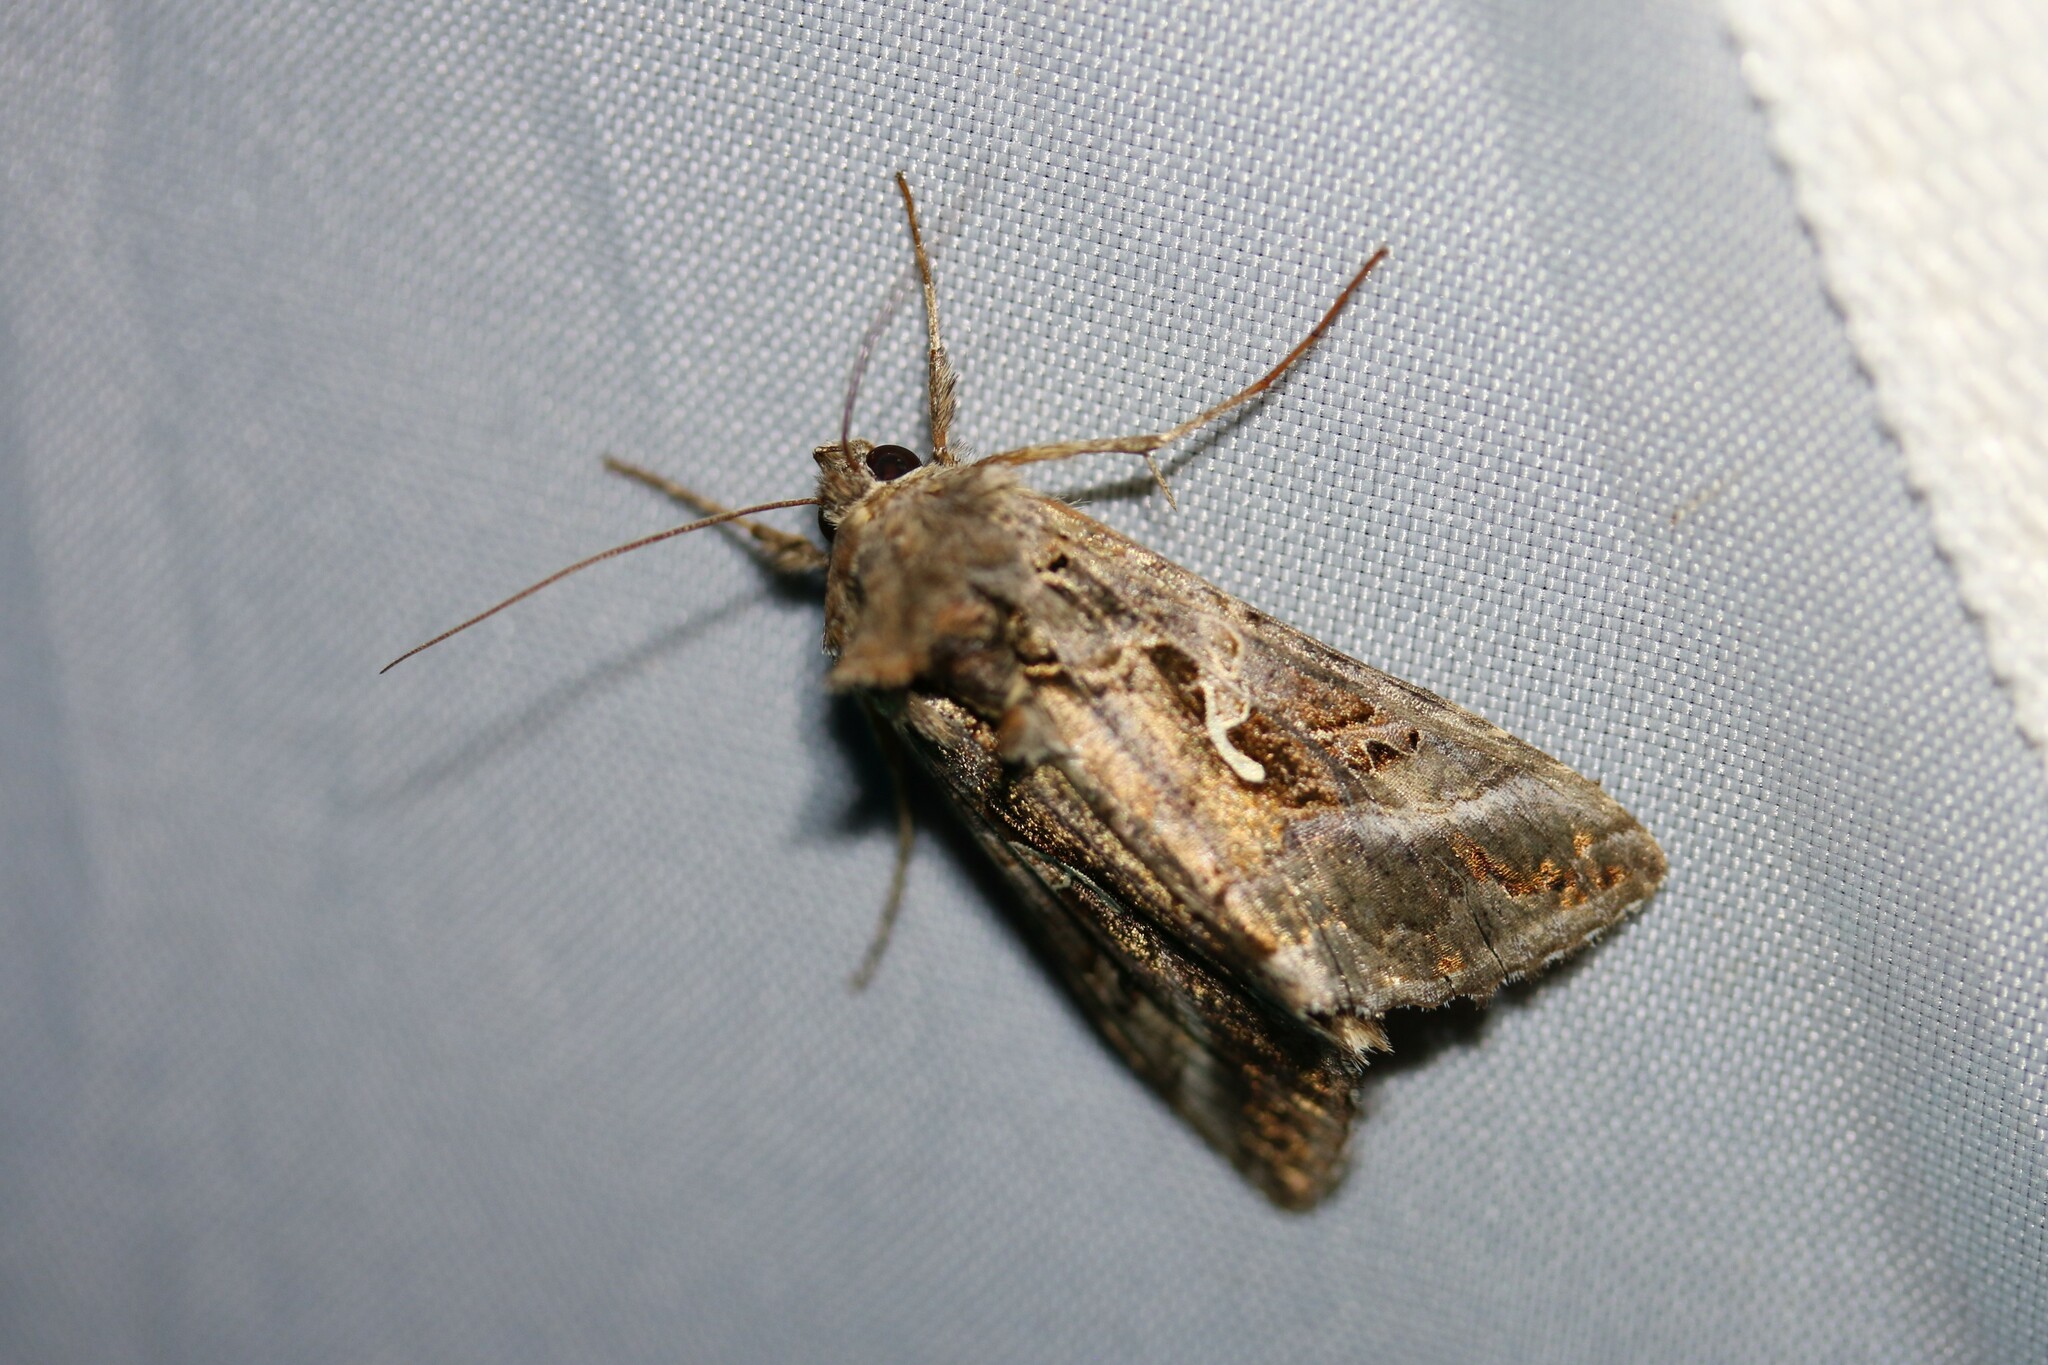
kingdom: Animalia
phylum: Arthropoda
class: Insecta
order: Lepidoptera
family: Noctuidae
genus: Autographa
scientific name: Autographa gamma
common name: Silver y
